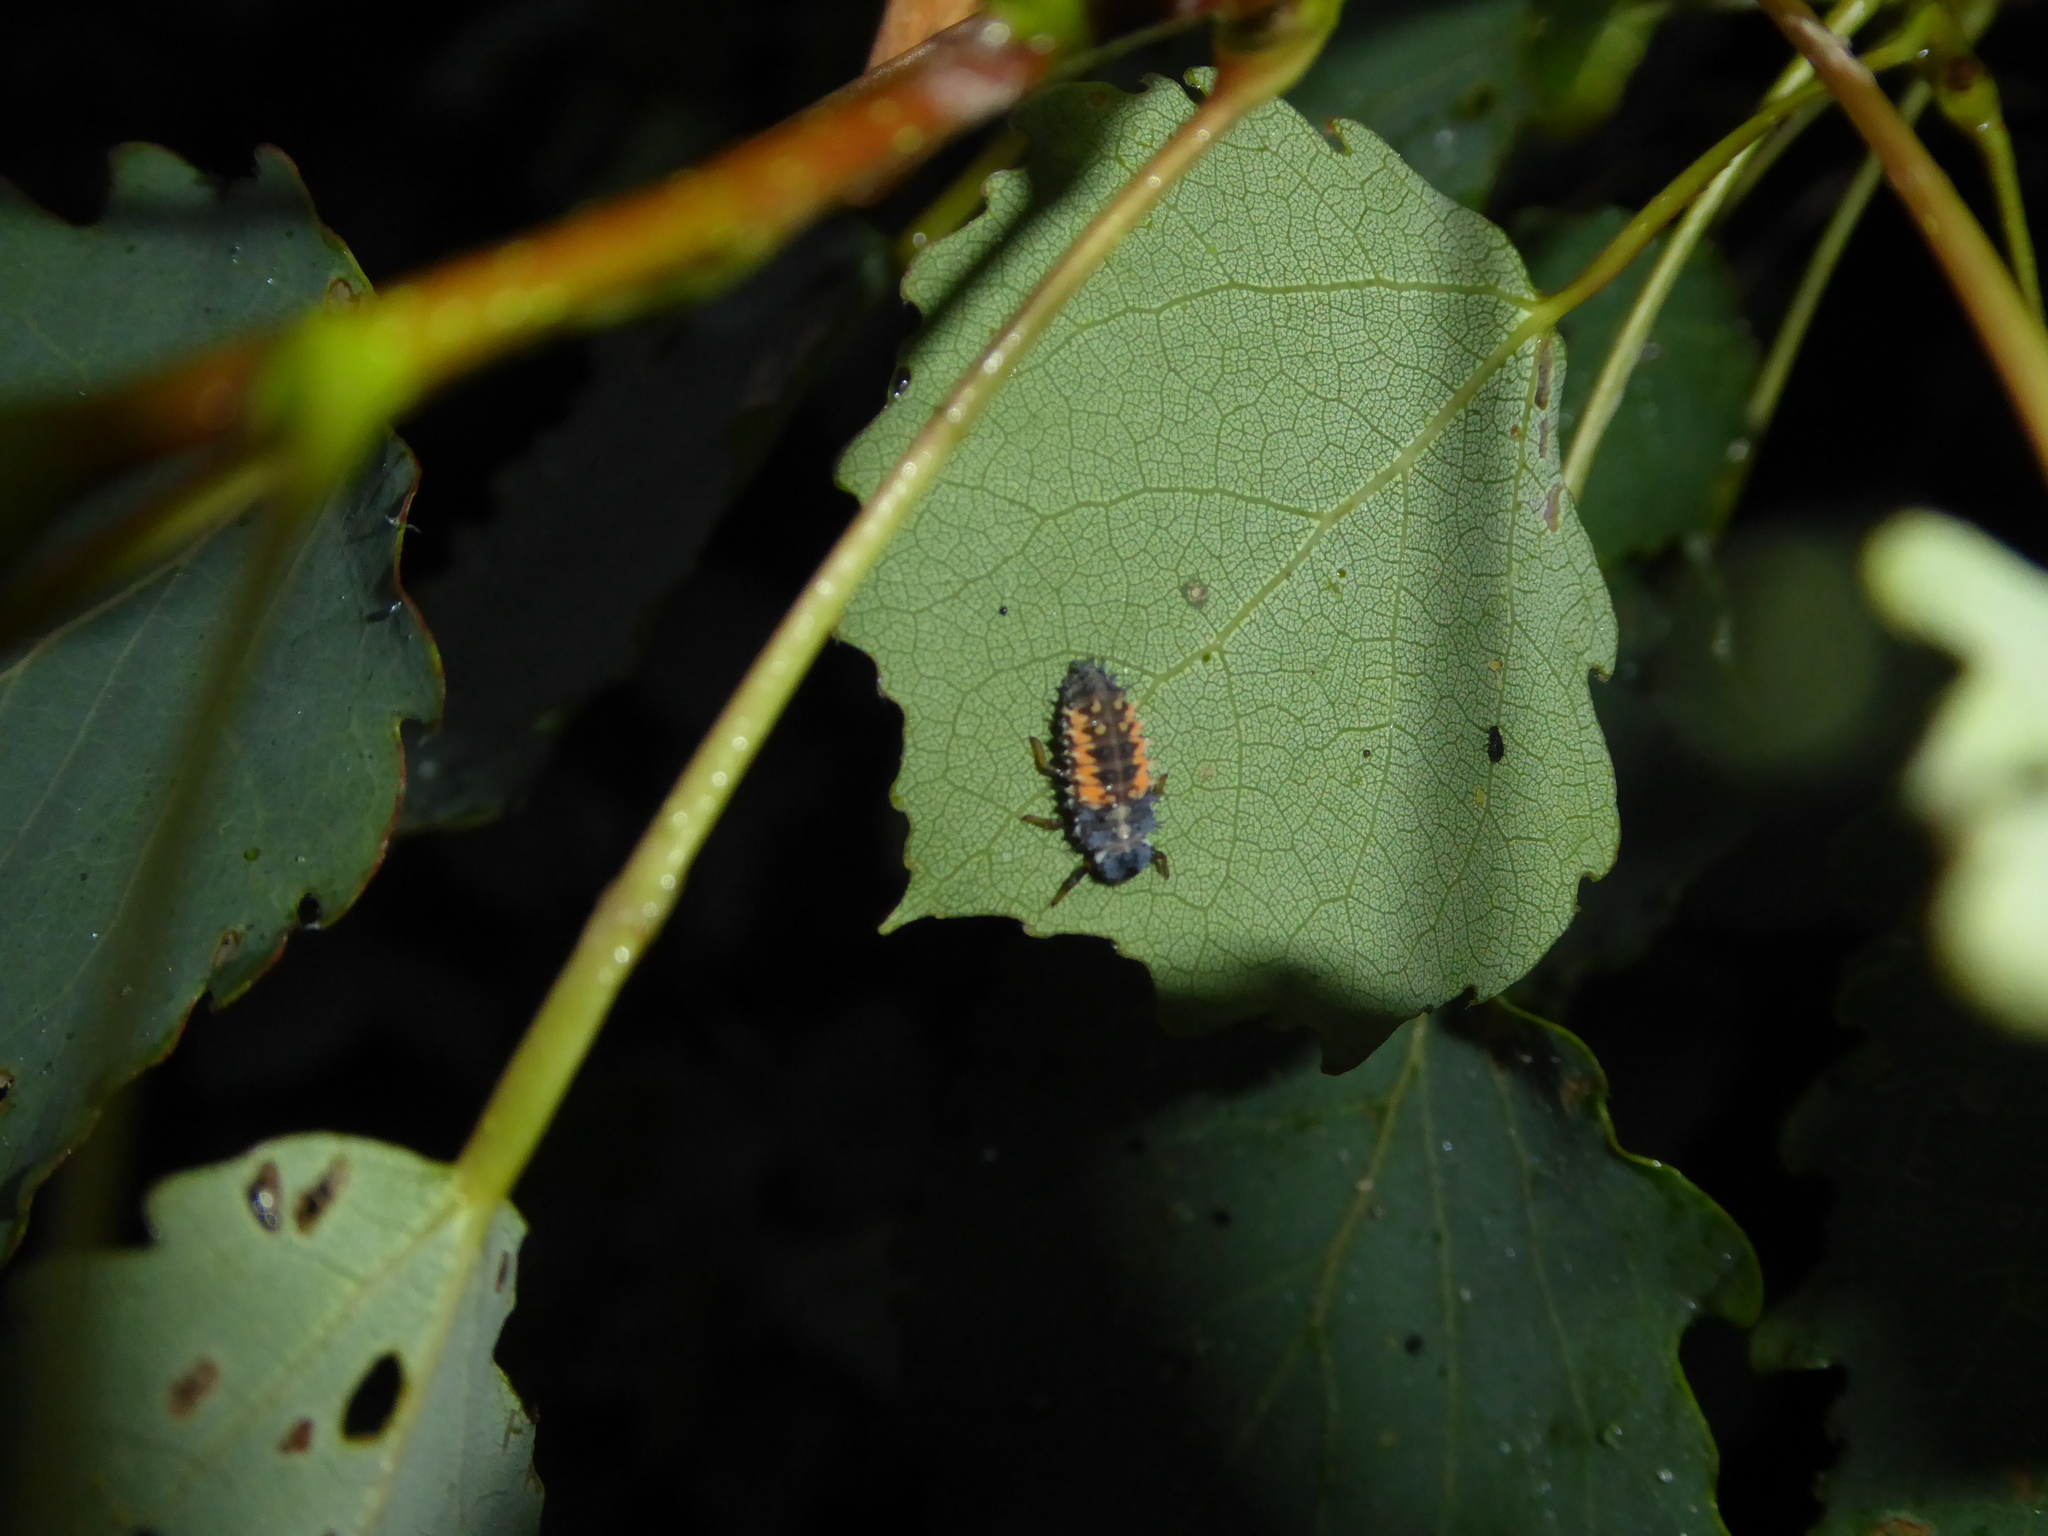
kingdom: Animalia
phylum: Arthropoda
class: Insecta
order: Coleoptera
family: Coccinellidae
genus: Harmonia
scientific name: Harmonia axyridis
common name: Harlequin ladybird
